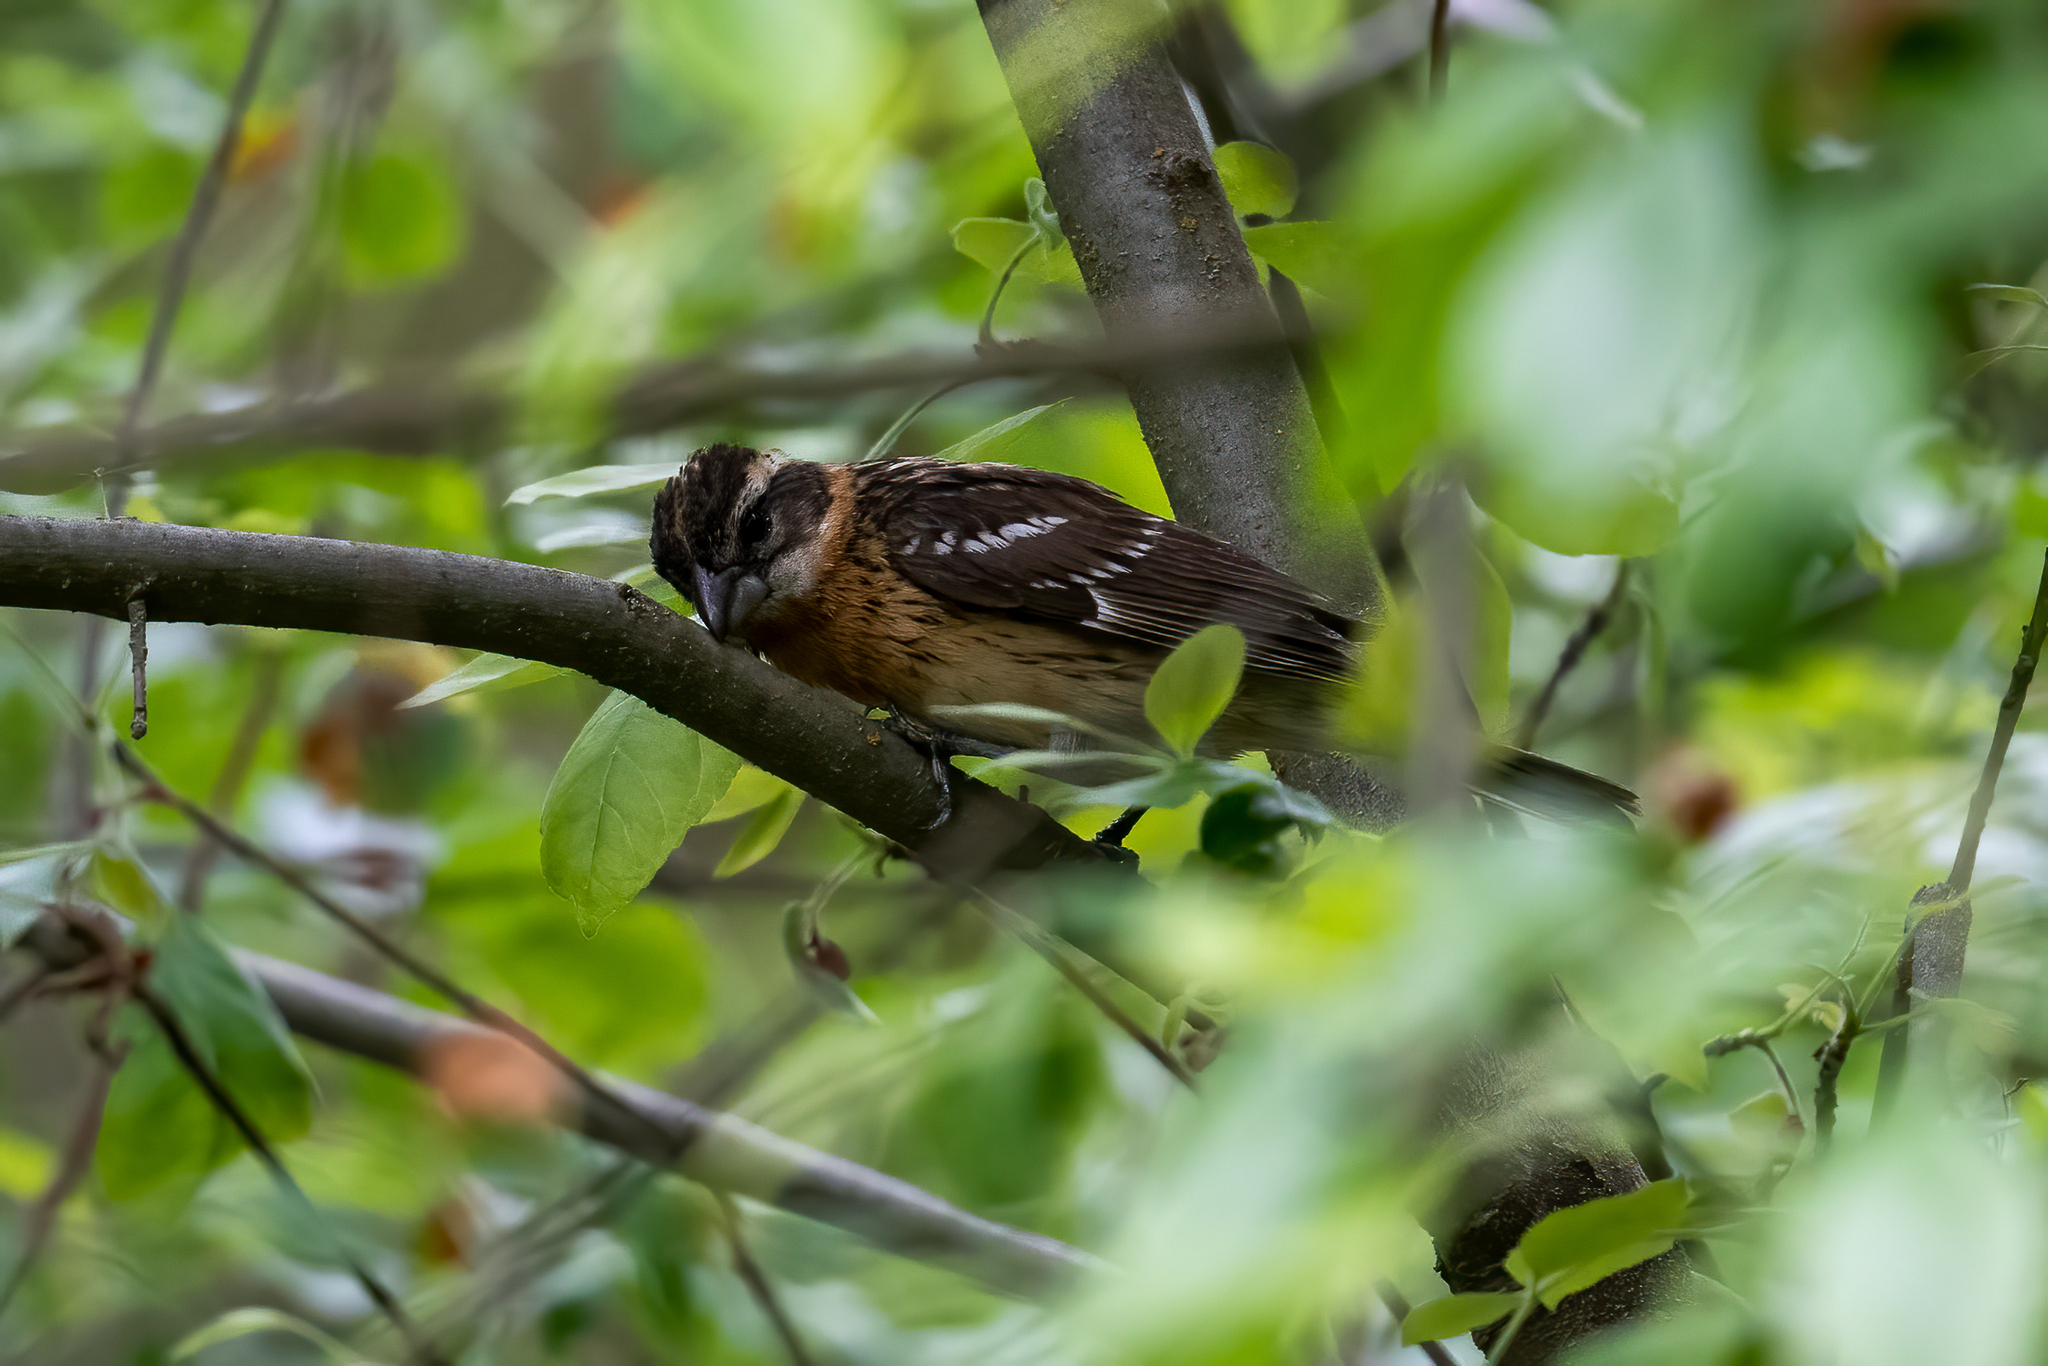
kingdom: Animalia
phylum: Chordata
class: Aves
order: Passeriformes
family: Cardinalidae
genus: Pheucticus
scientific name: Pheucticus melanocephalus
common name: Black-headed grosbeak
